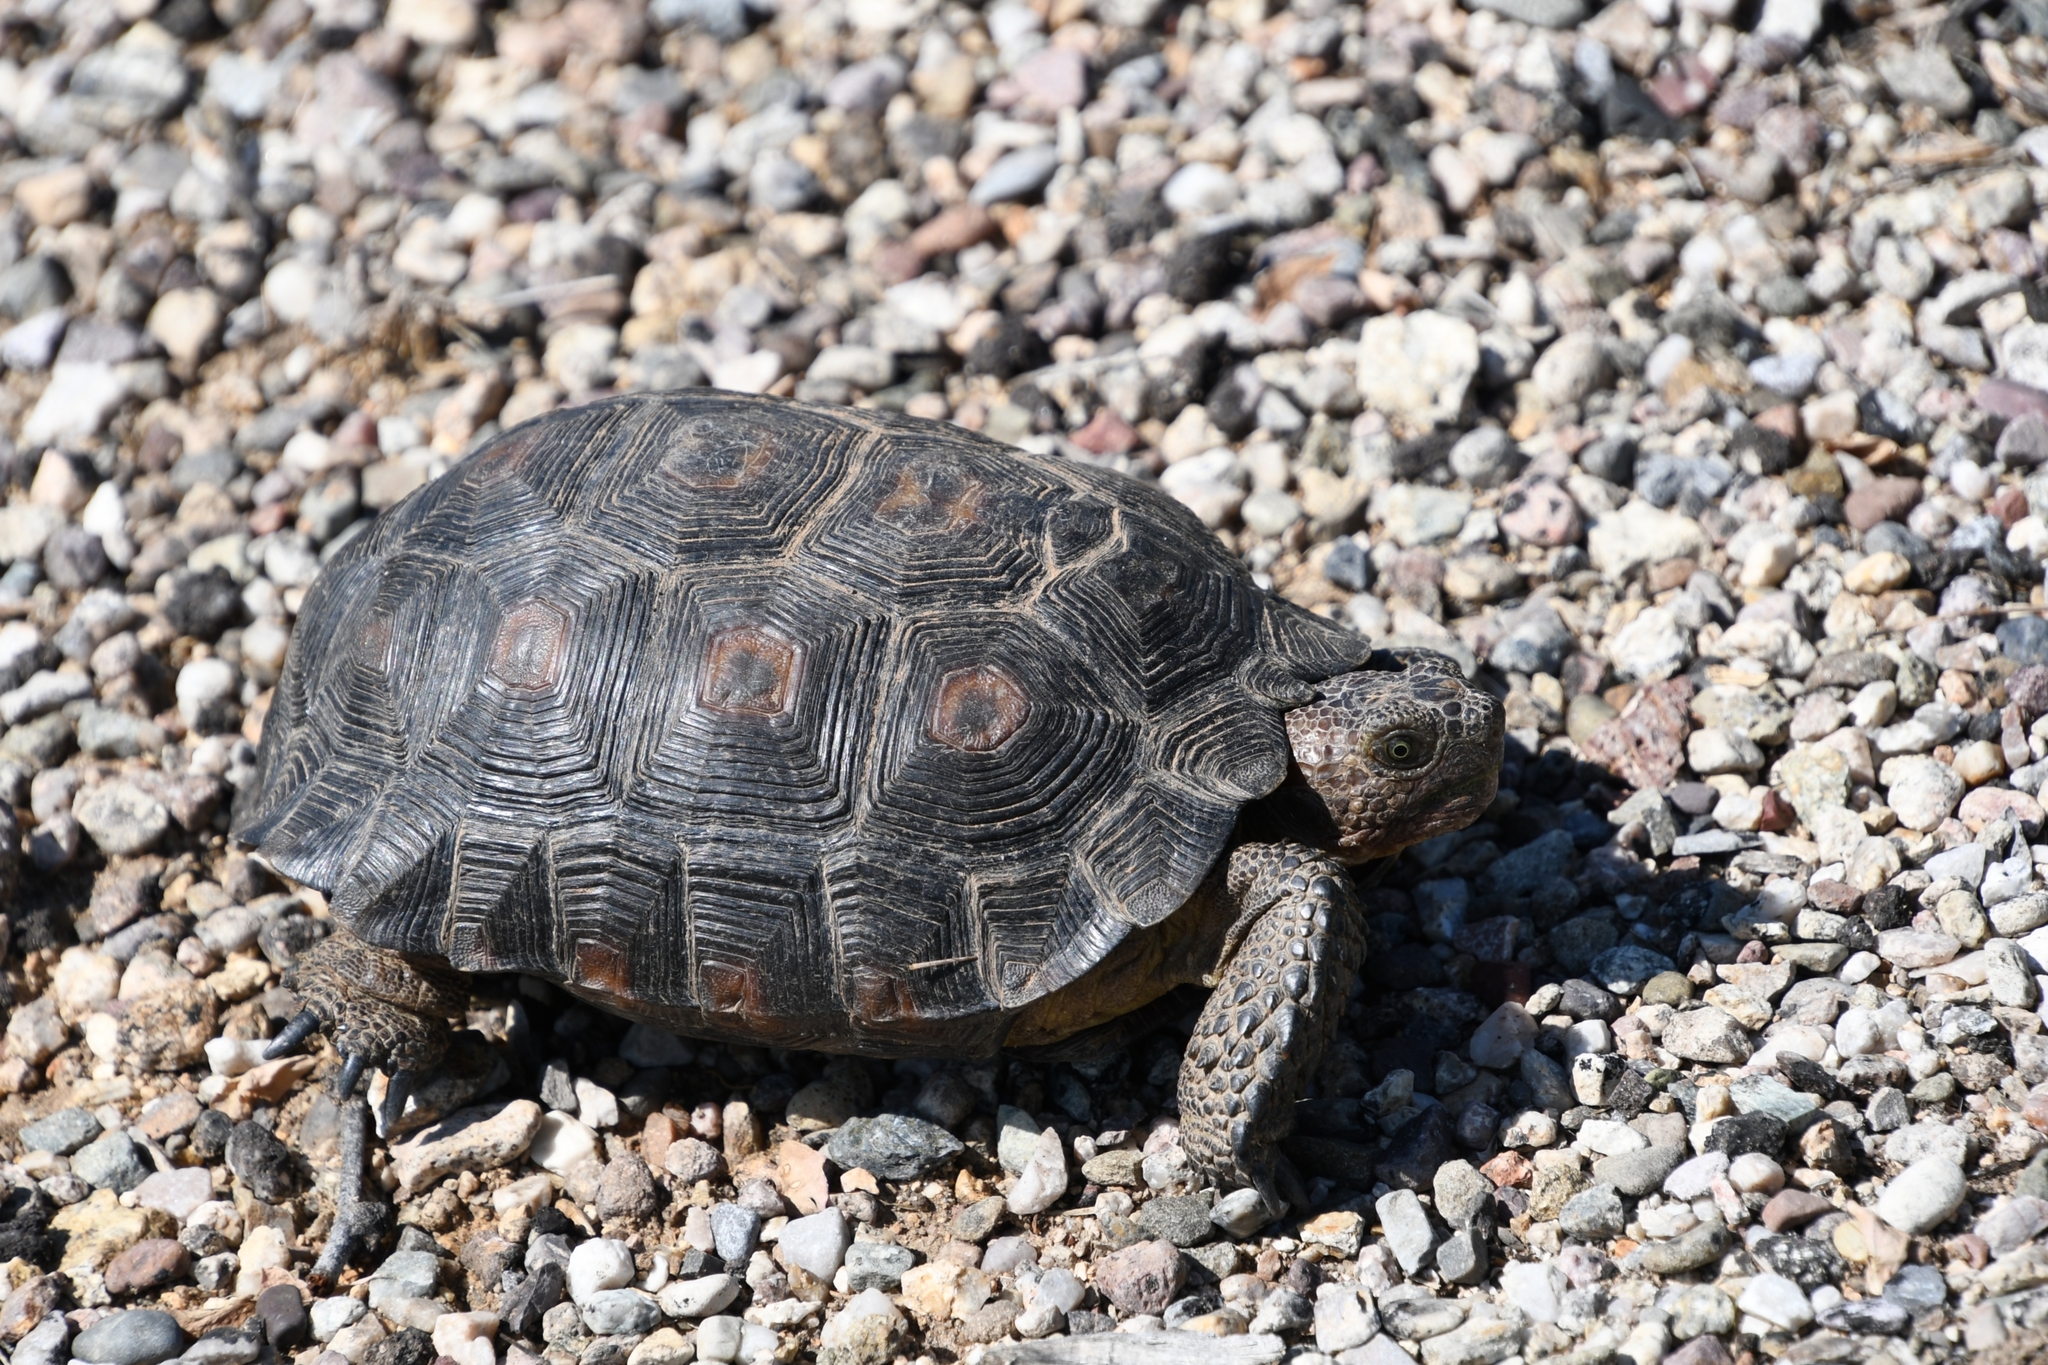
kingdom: Animalia
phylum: Chordata
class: Testudines
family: Testudinidae
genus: Gopherus
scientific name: Gopherus morafkai
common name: Sonoran desert tortoise
